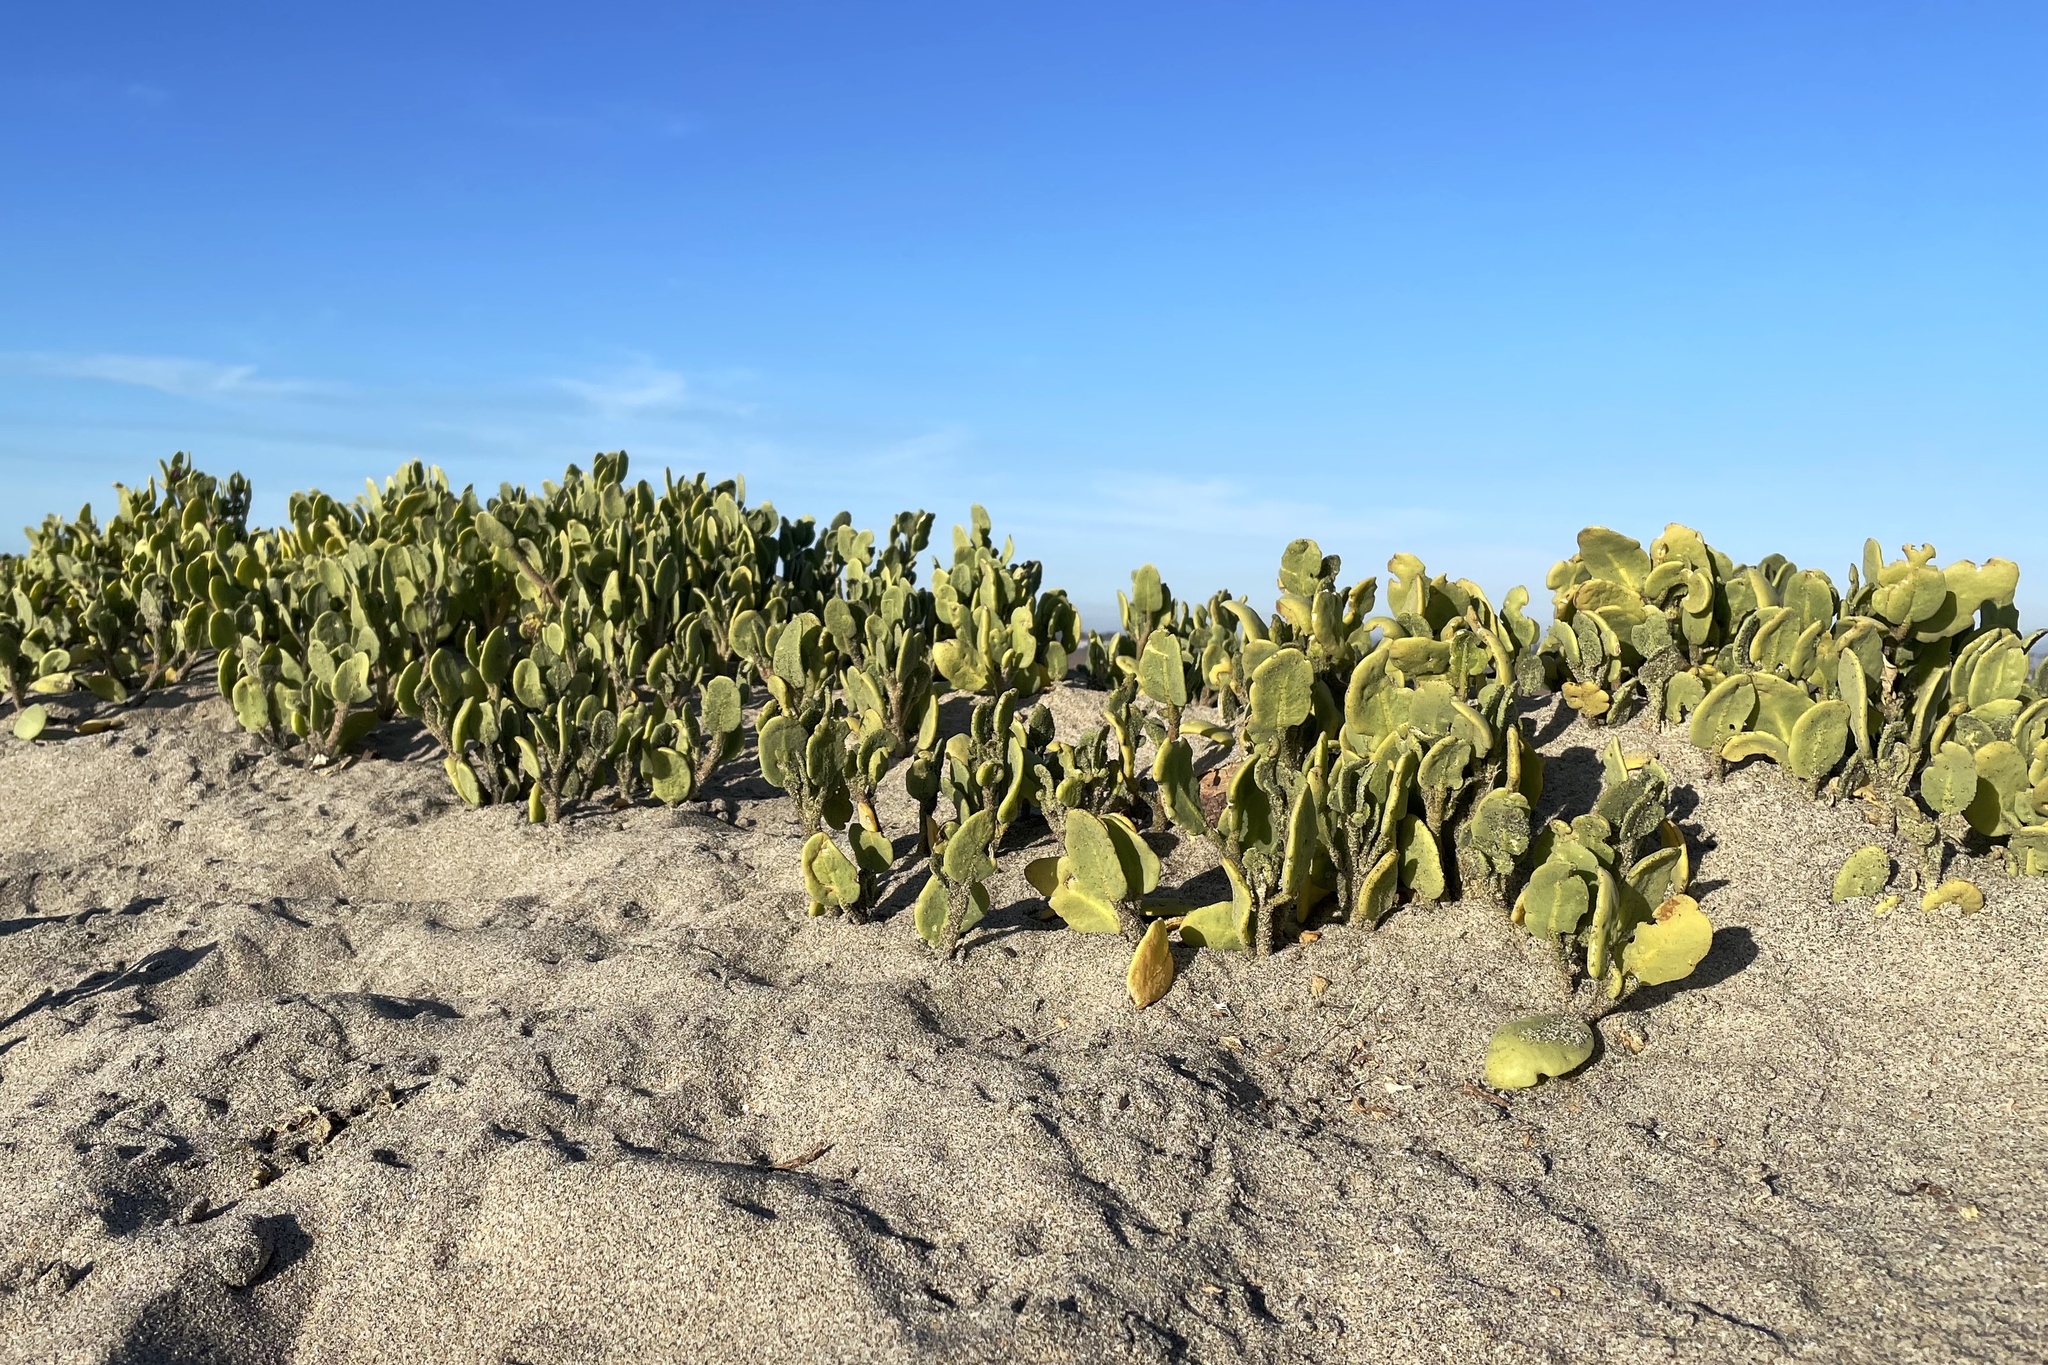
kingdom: Plantae
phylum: Tracheophyta
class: Magnoliopsida
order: Caryophyllales
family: Nyctaginaceae
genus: Abronia
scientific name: Abronia maritima
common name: Red sand-verbena
